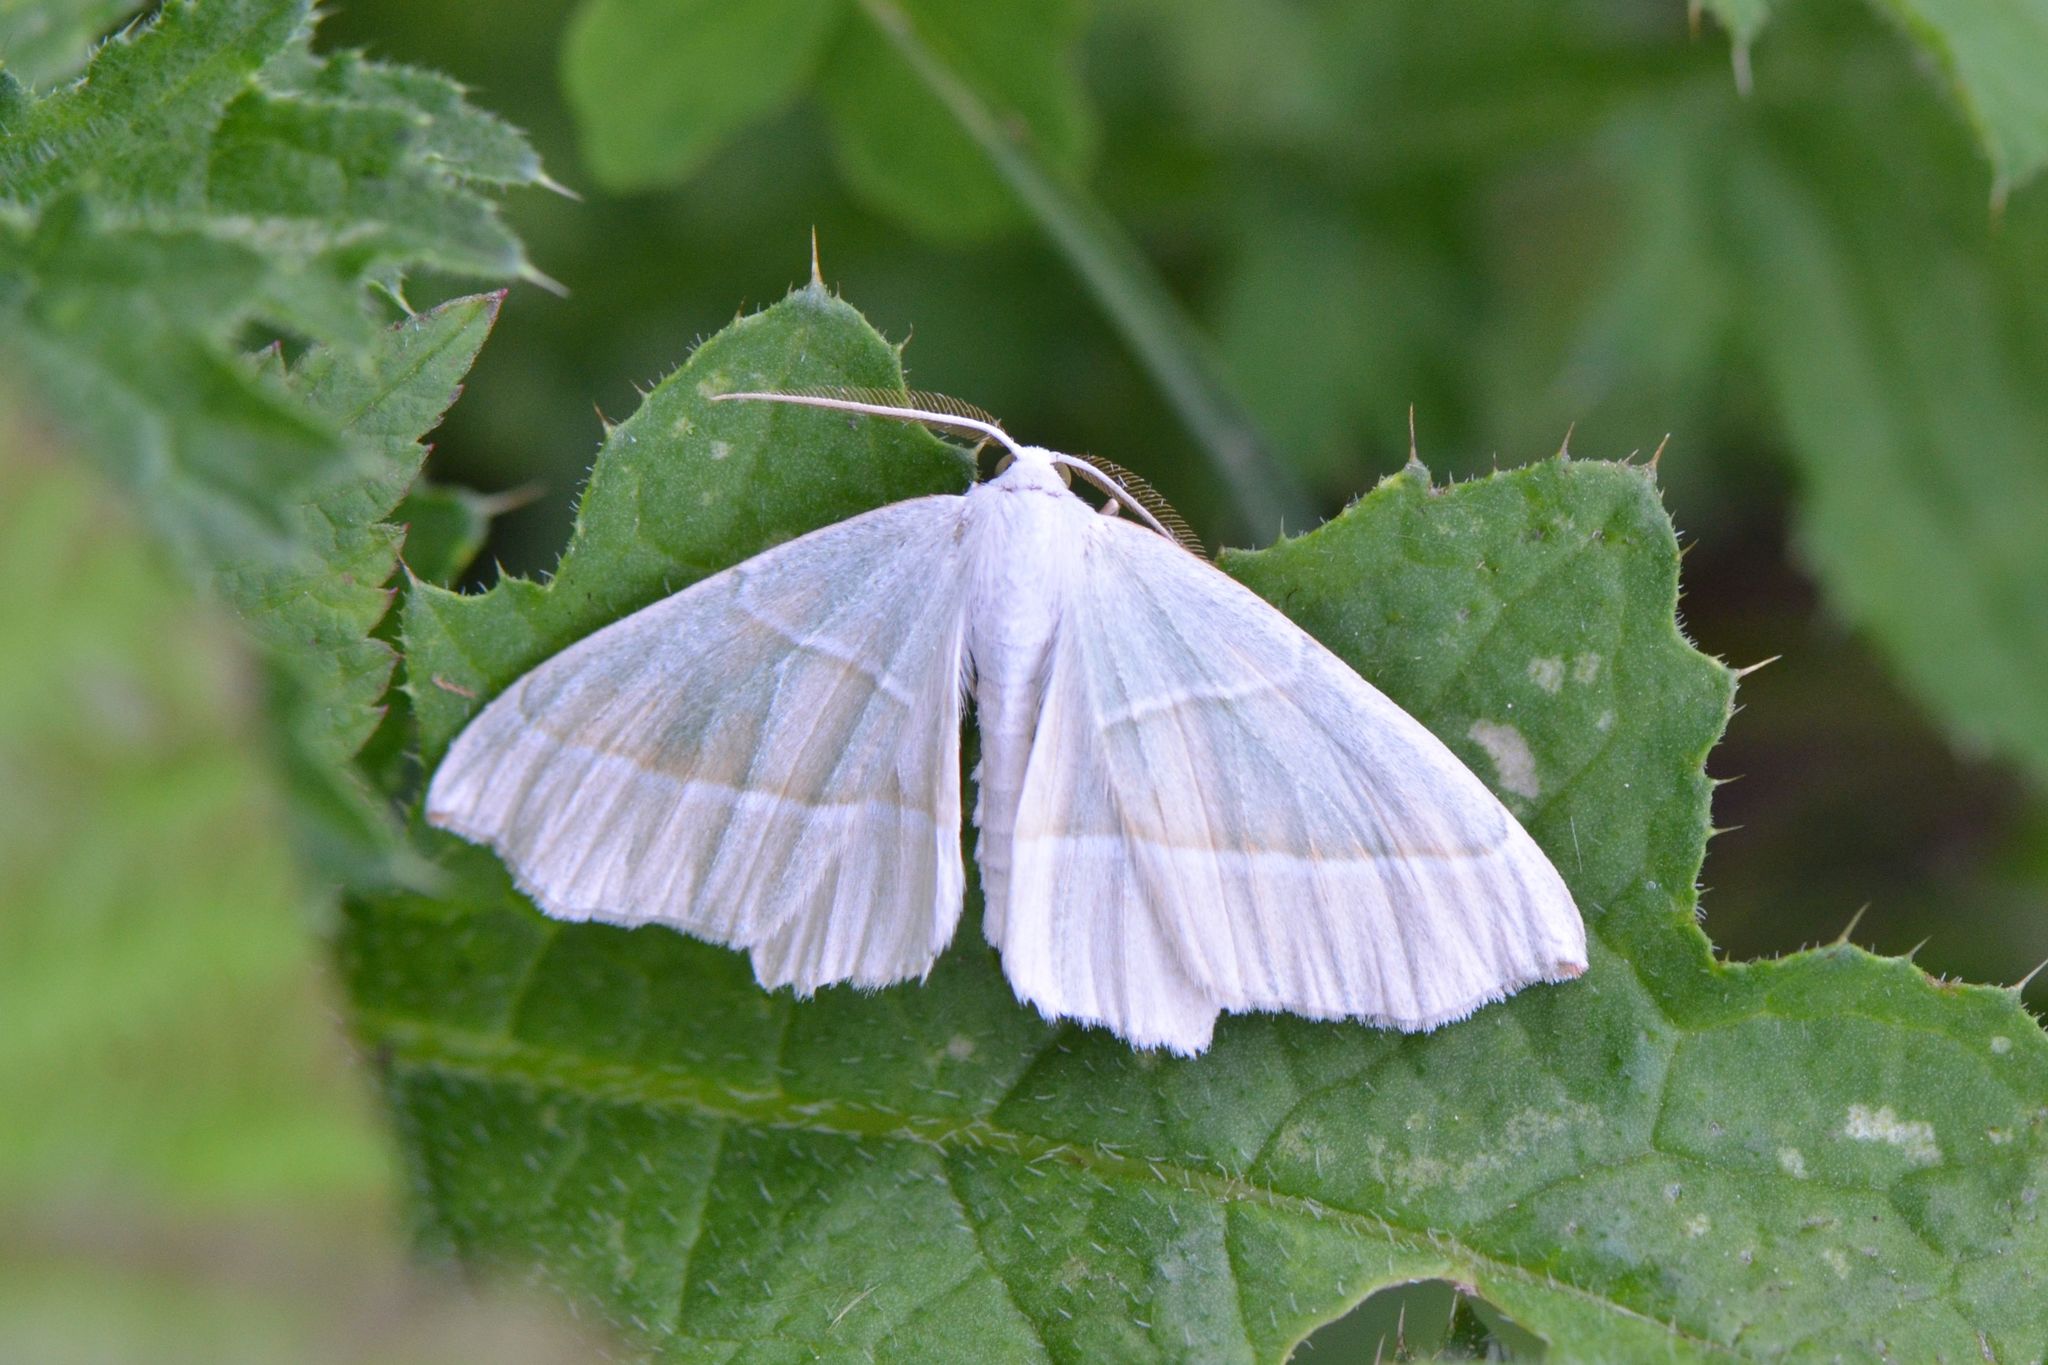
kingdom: Animalia
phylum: Arthropoda
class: Insecta
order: Lepidoptera
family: Geometridae
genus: Campaea
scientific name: Campaea margaritaria
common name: Light emerald
